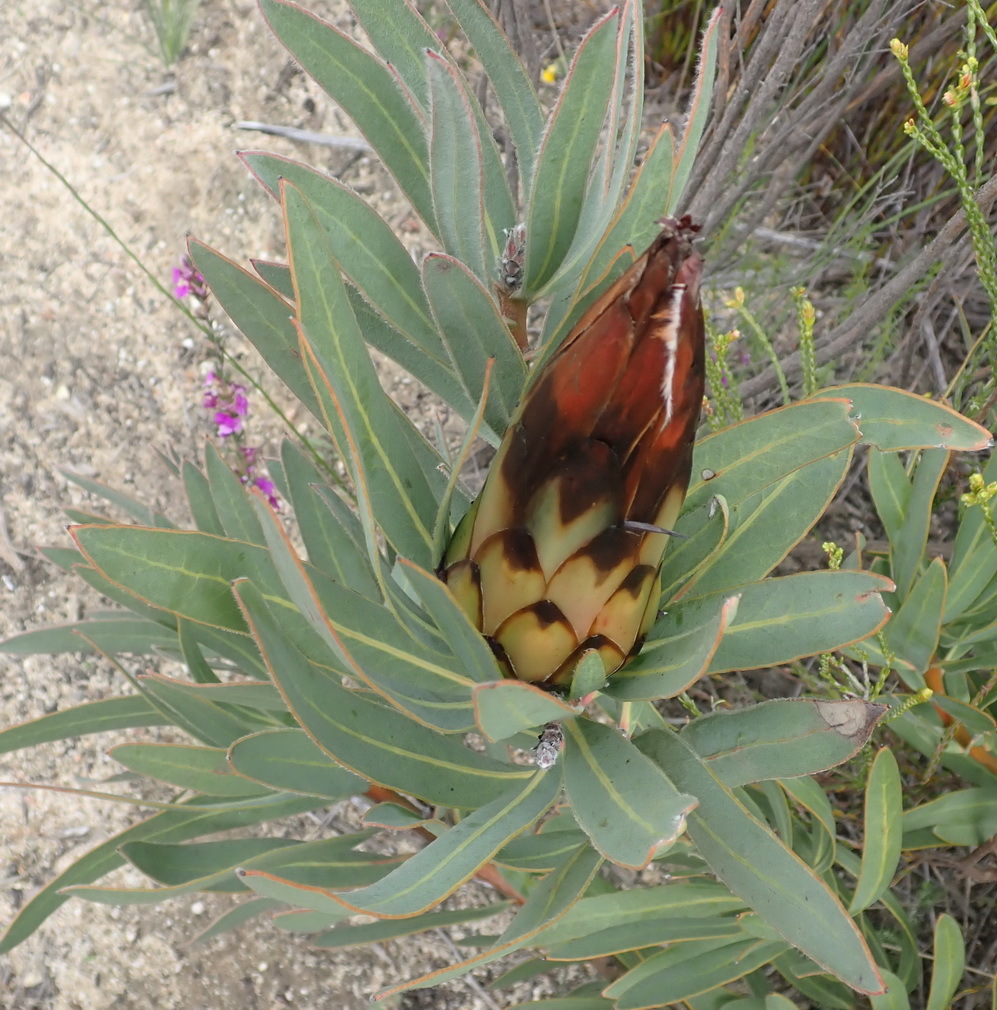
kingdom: Plantae
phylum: Tracheophyta
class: Magnoliopsida
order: Proteales
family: Proteaceae
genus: Protea
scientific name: Protea
